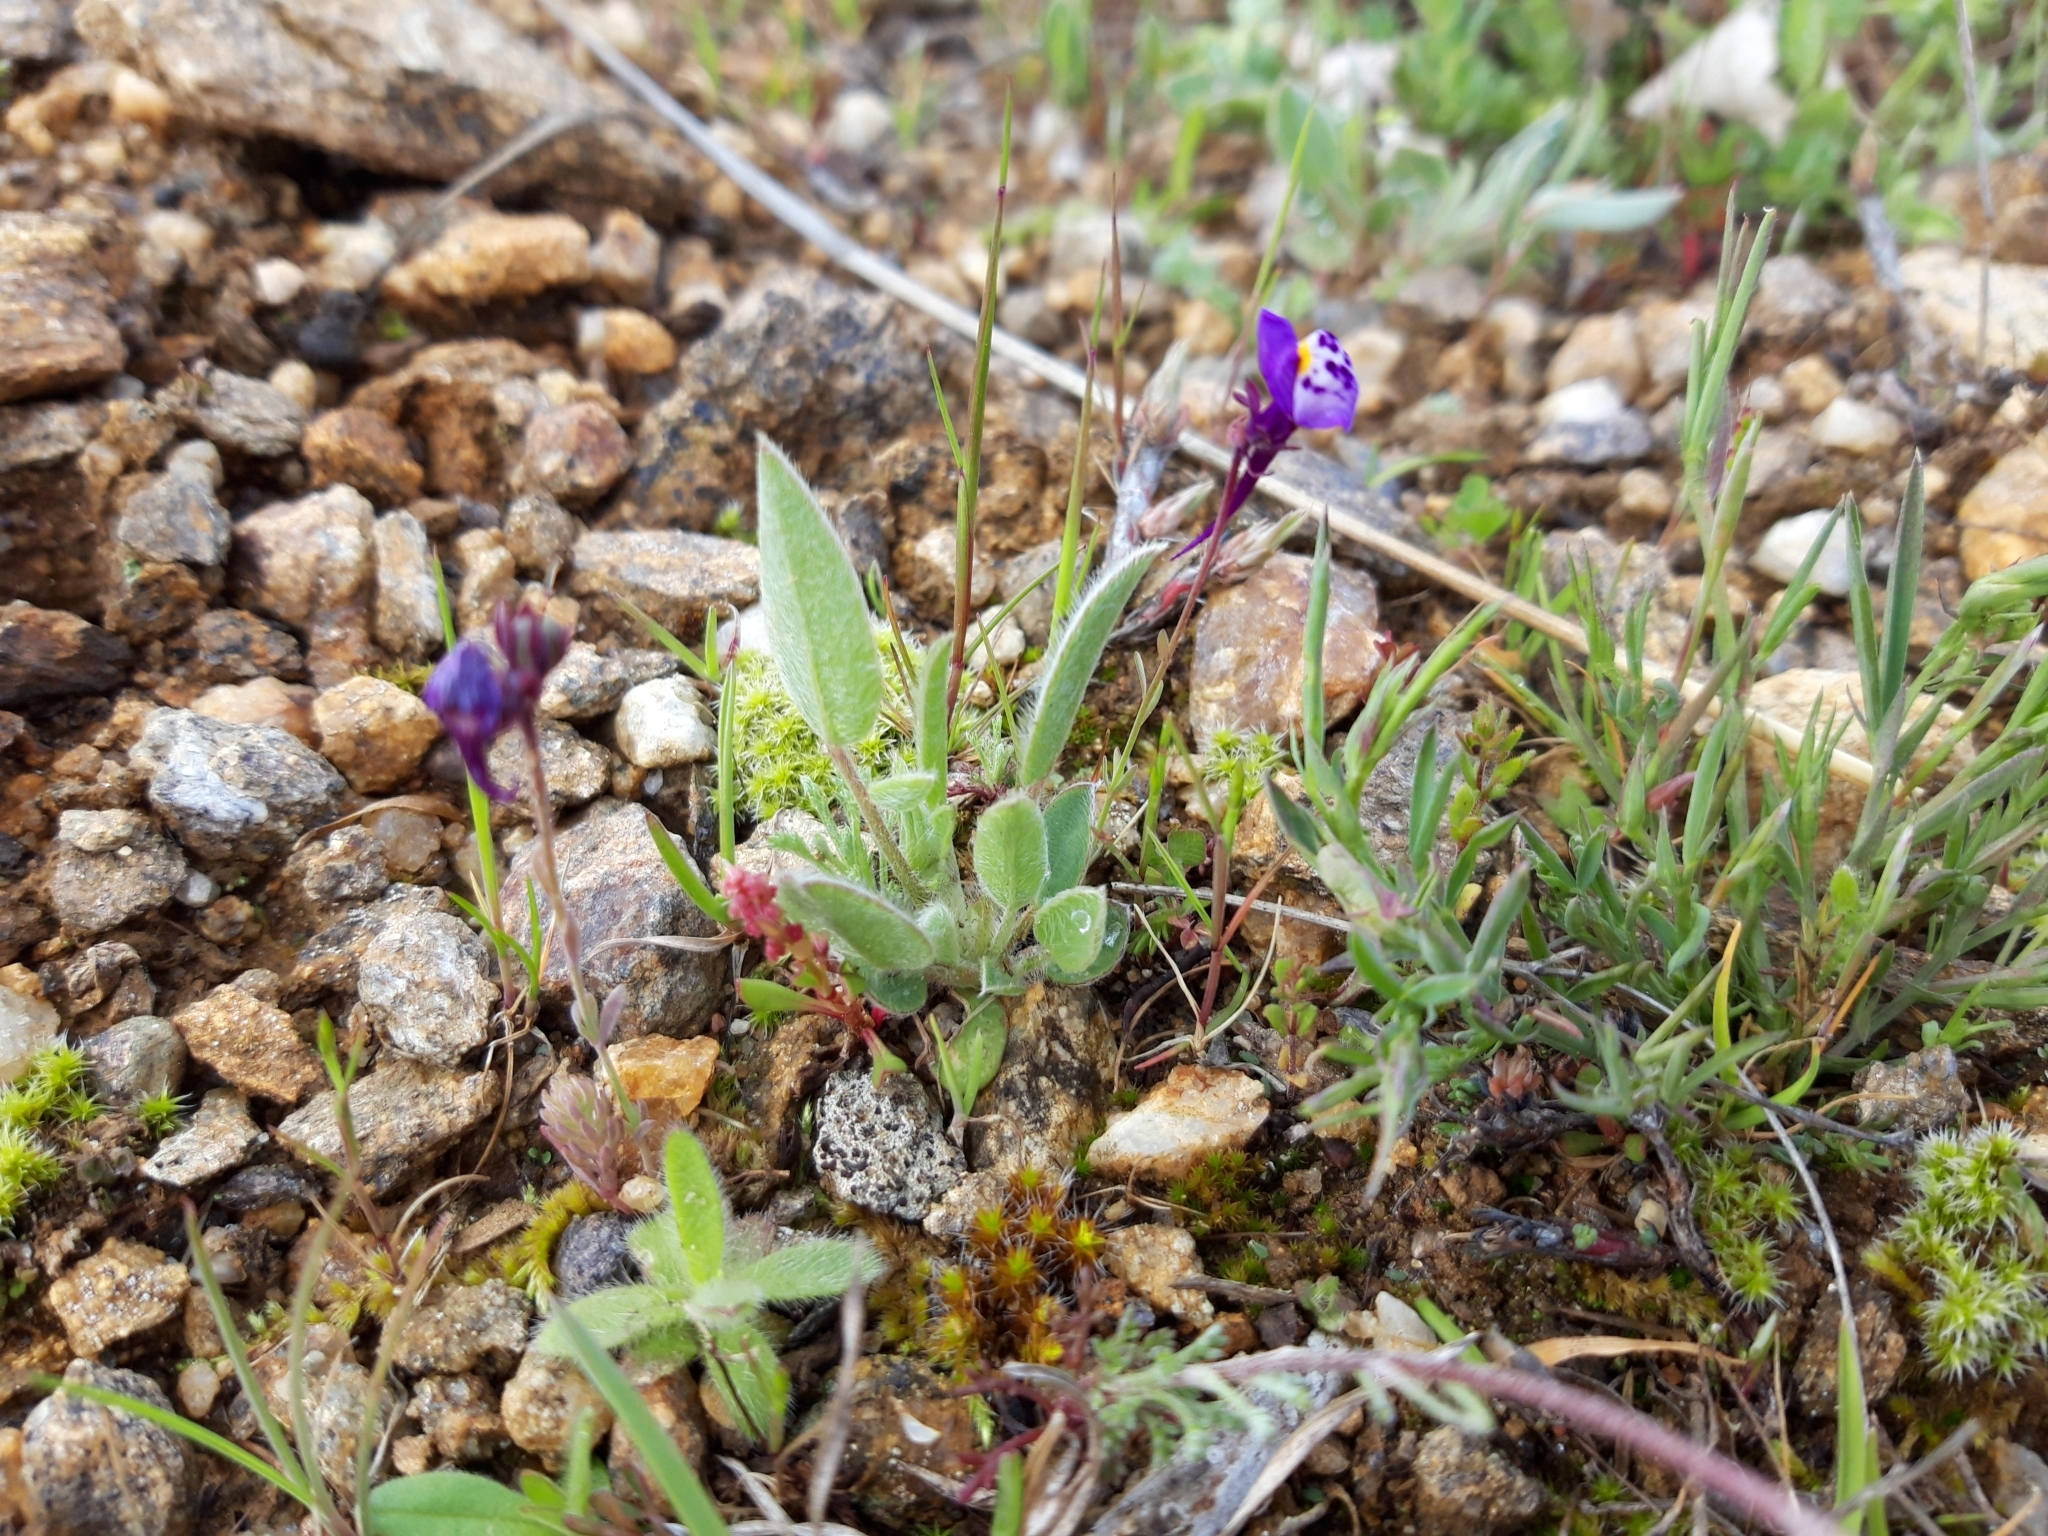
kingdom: Plantae
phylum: Tracheophyta
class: Magnoliopsida
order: Lamiales
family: Plantaginaceae
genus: Linaria
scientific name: Linaria amethystea
